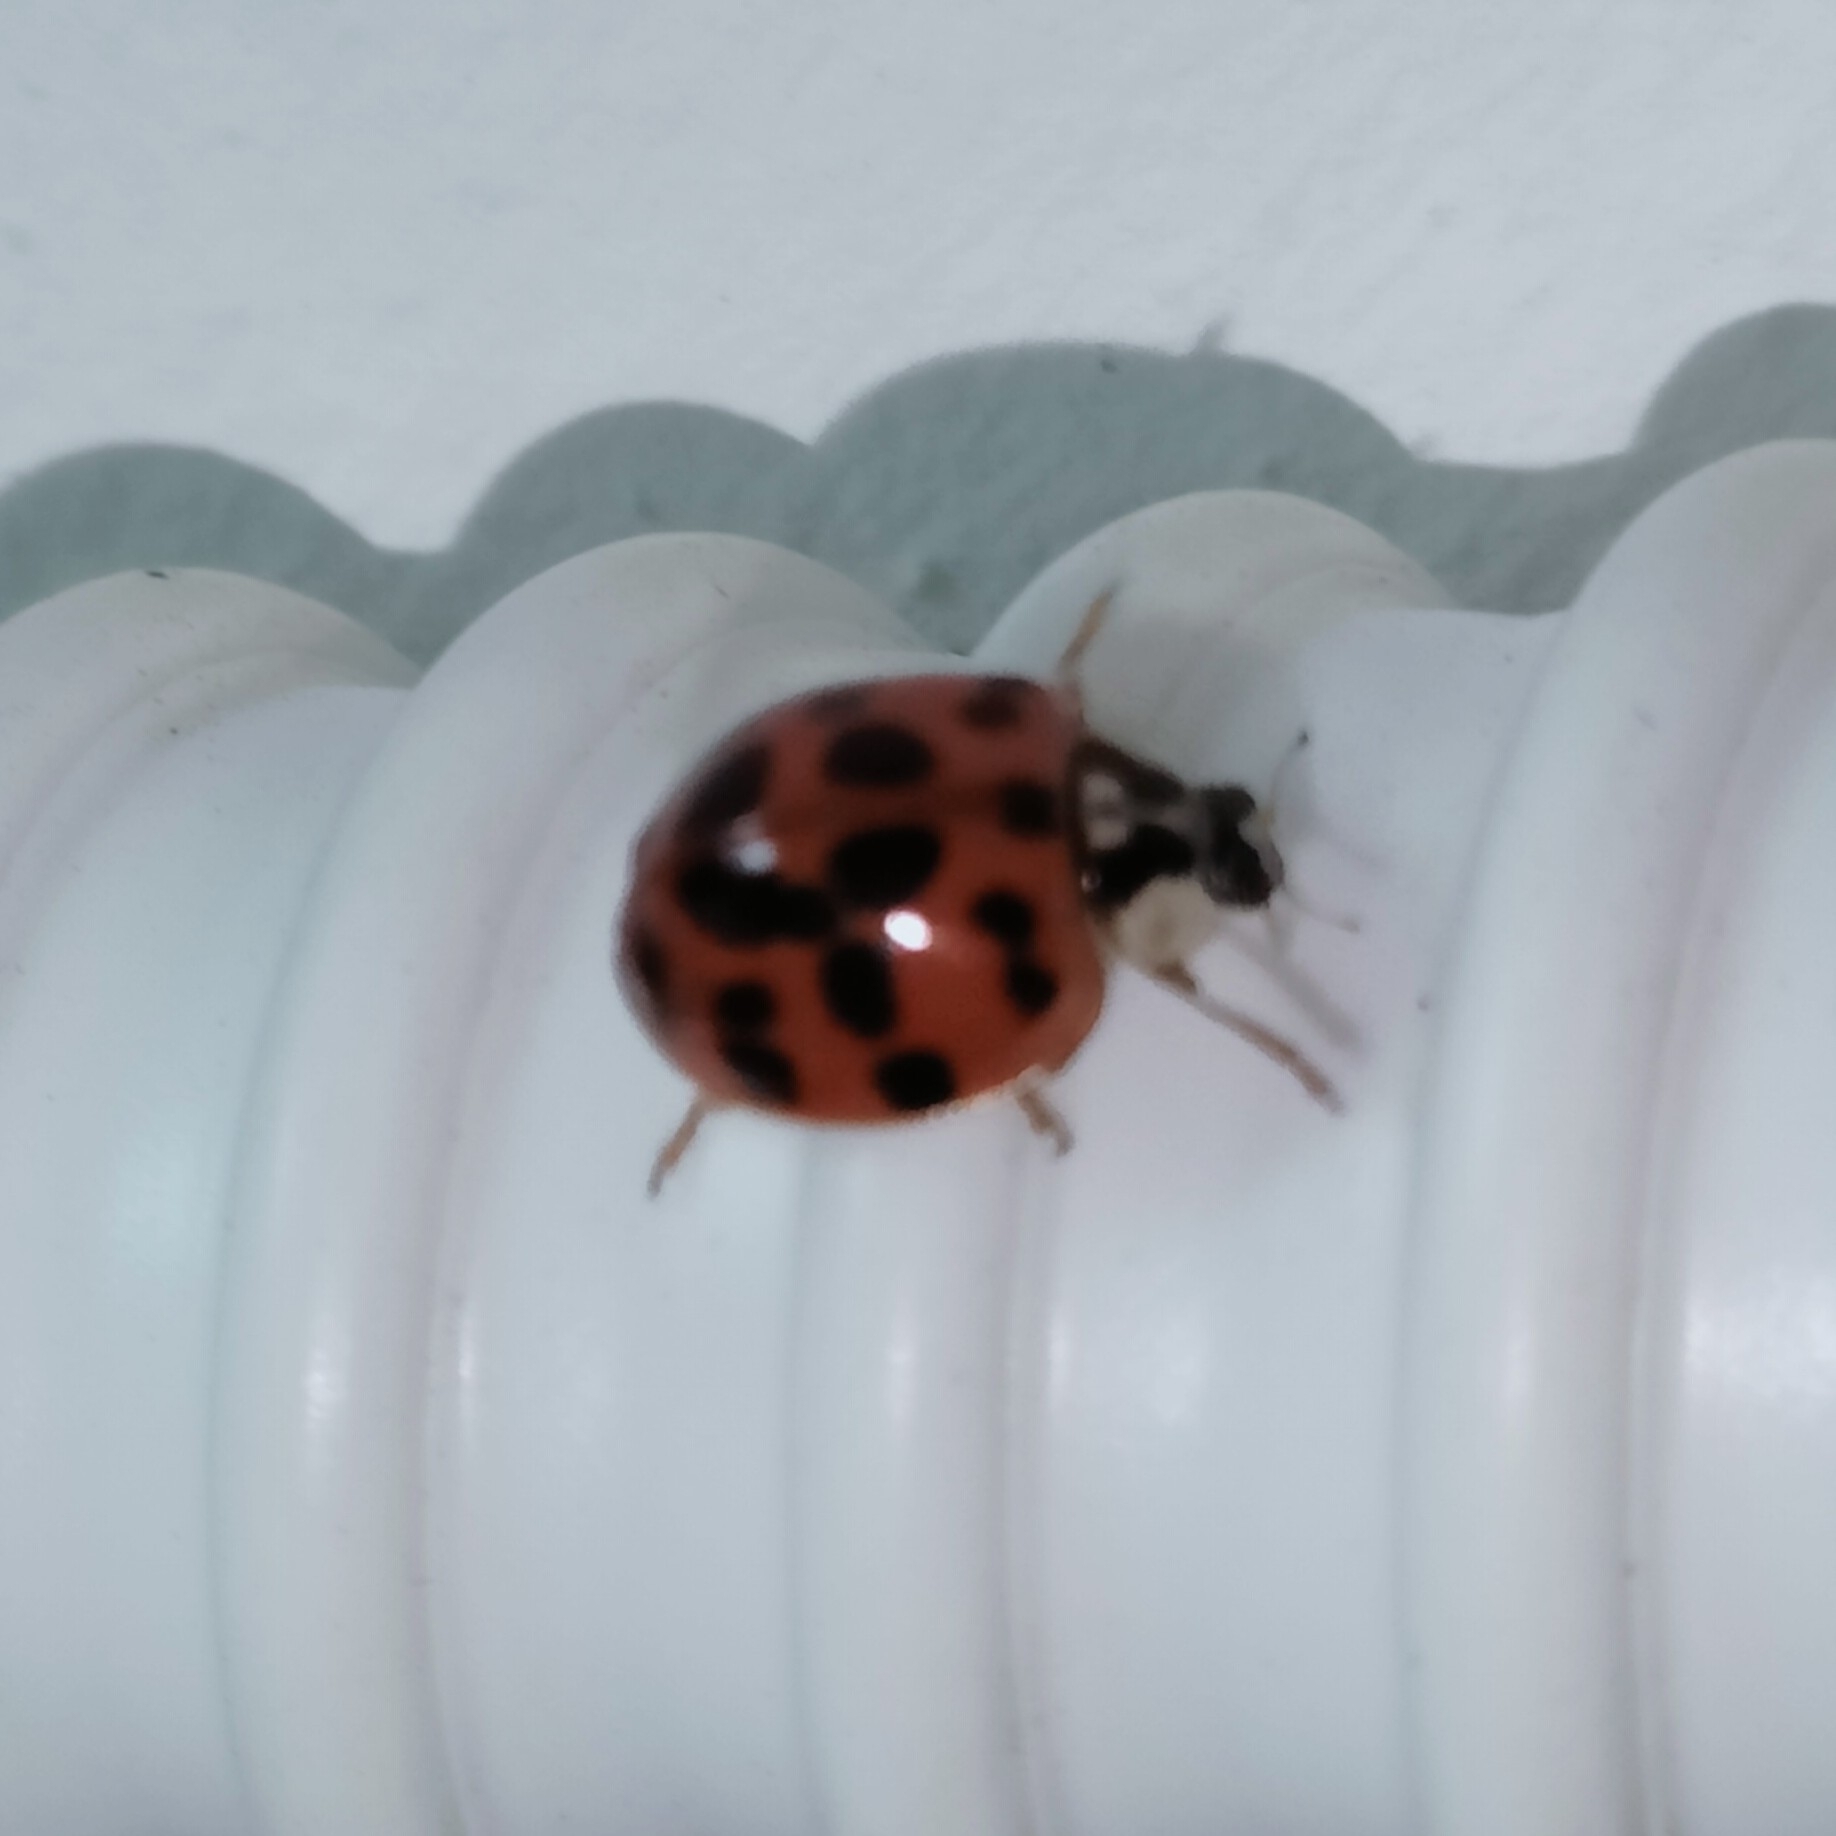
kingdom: Animalia
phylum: Arthropoda
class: Insecta
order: Coleoptera
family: Coccinellidae
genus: Harmonia
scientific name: Harmonia axyridis
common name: Harlequin ladybird
